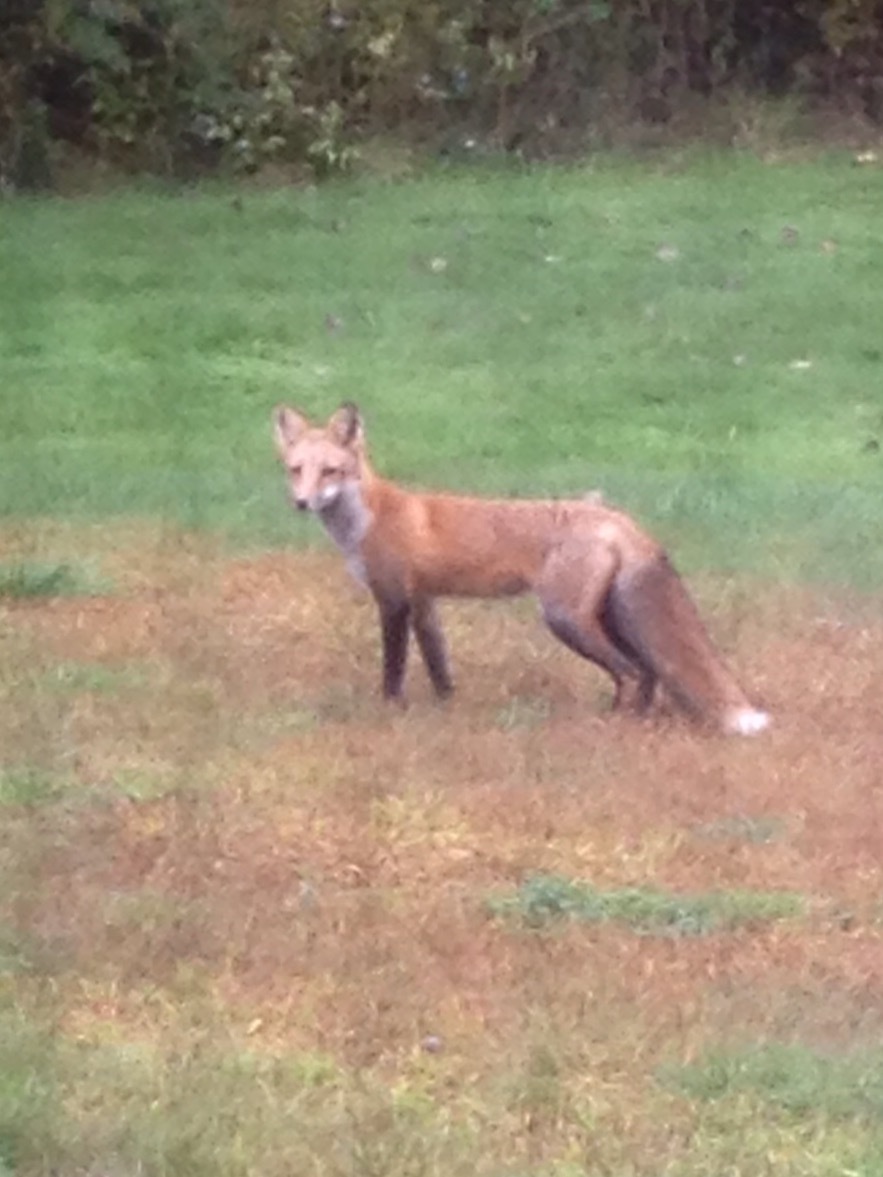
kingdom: Animalia
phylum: Chordata
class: Mammalia
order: Carnivora
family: Canidae
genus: Vulpes
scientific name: Vulpes vulpes
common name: Red fox
